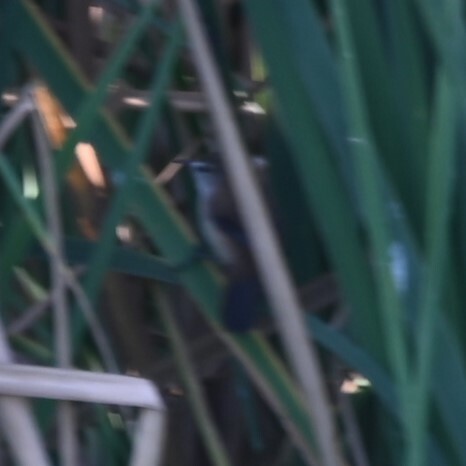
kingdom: Animalia
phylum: Chordata
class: Aves
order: Passeriformes
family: Acrocephalidae
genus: Acrocephalus
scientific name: Acrocephalus scirpaceus
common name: Eurasian reed warbler
